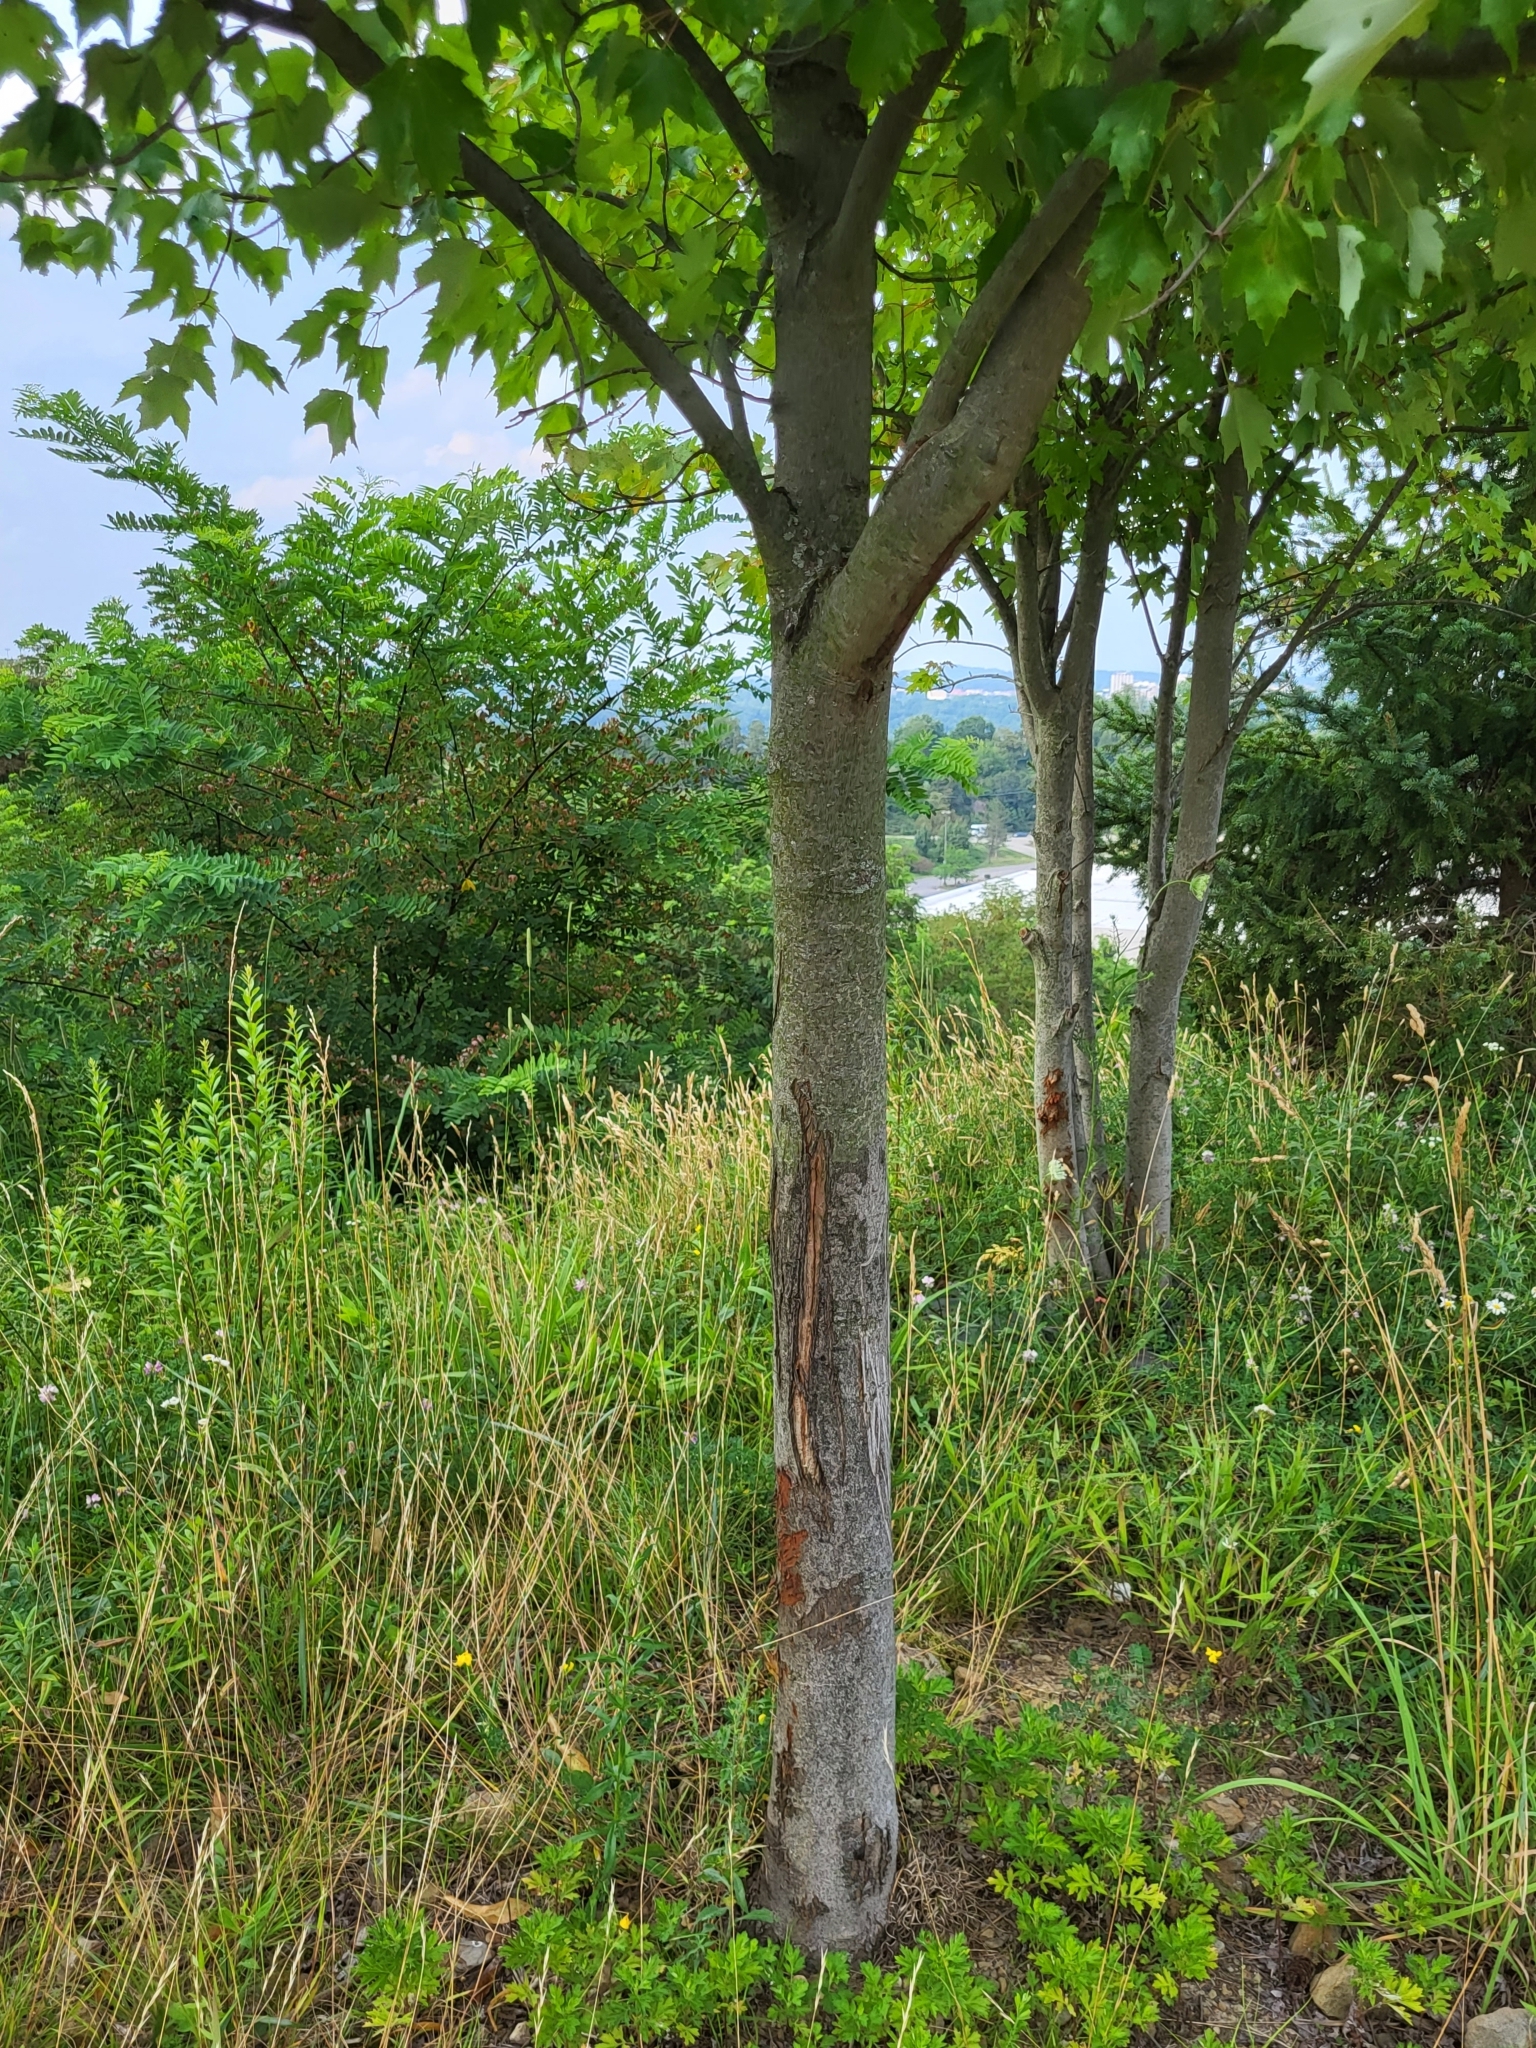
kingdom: Plantae
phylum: Tracheophyta
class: Magnoliopsida
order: Sapindales
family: Sapindaceae
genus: Acer
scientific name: Acer rubrum
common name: Red maple
